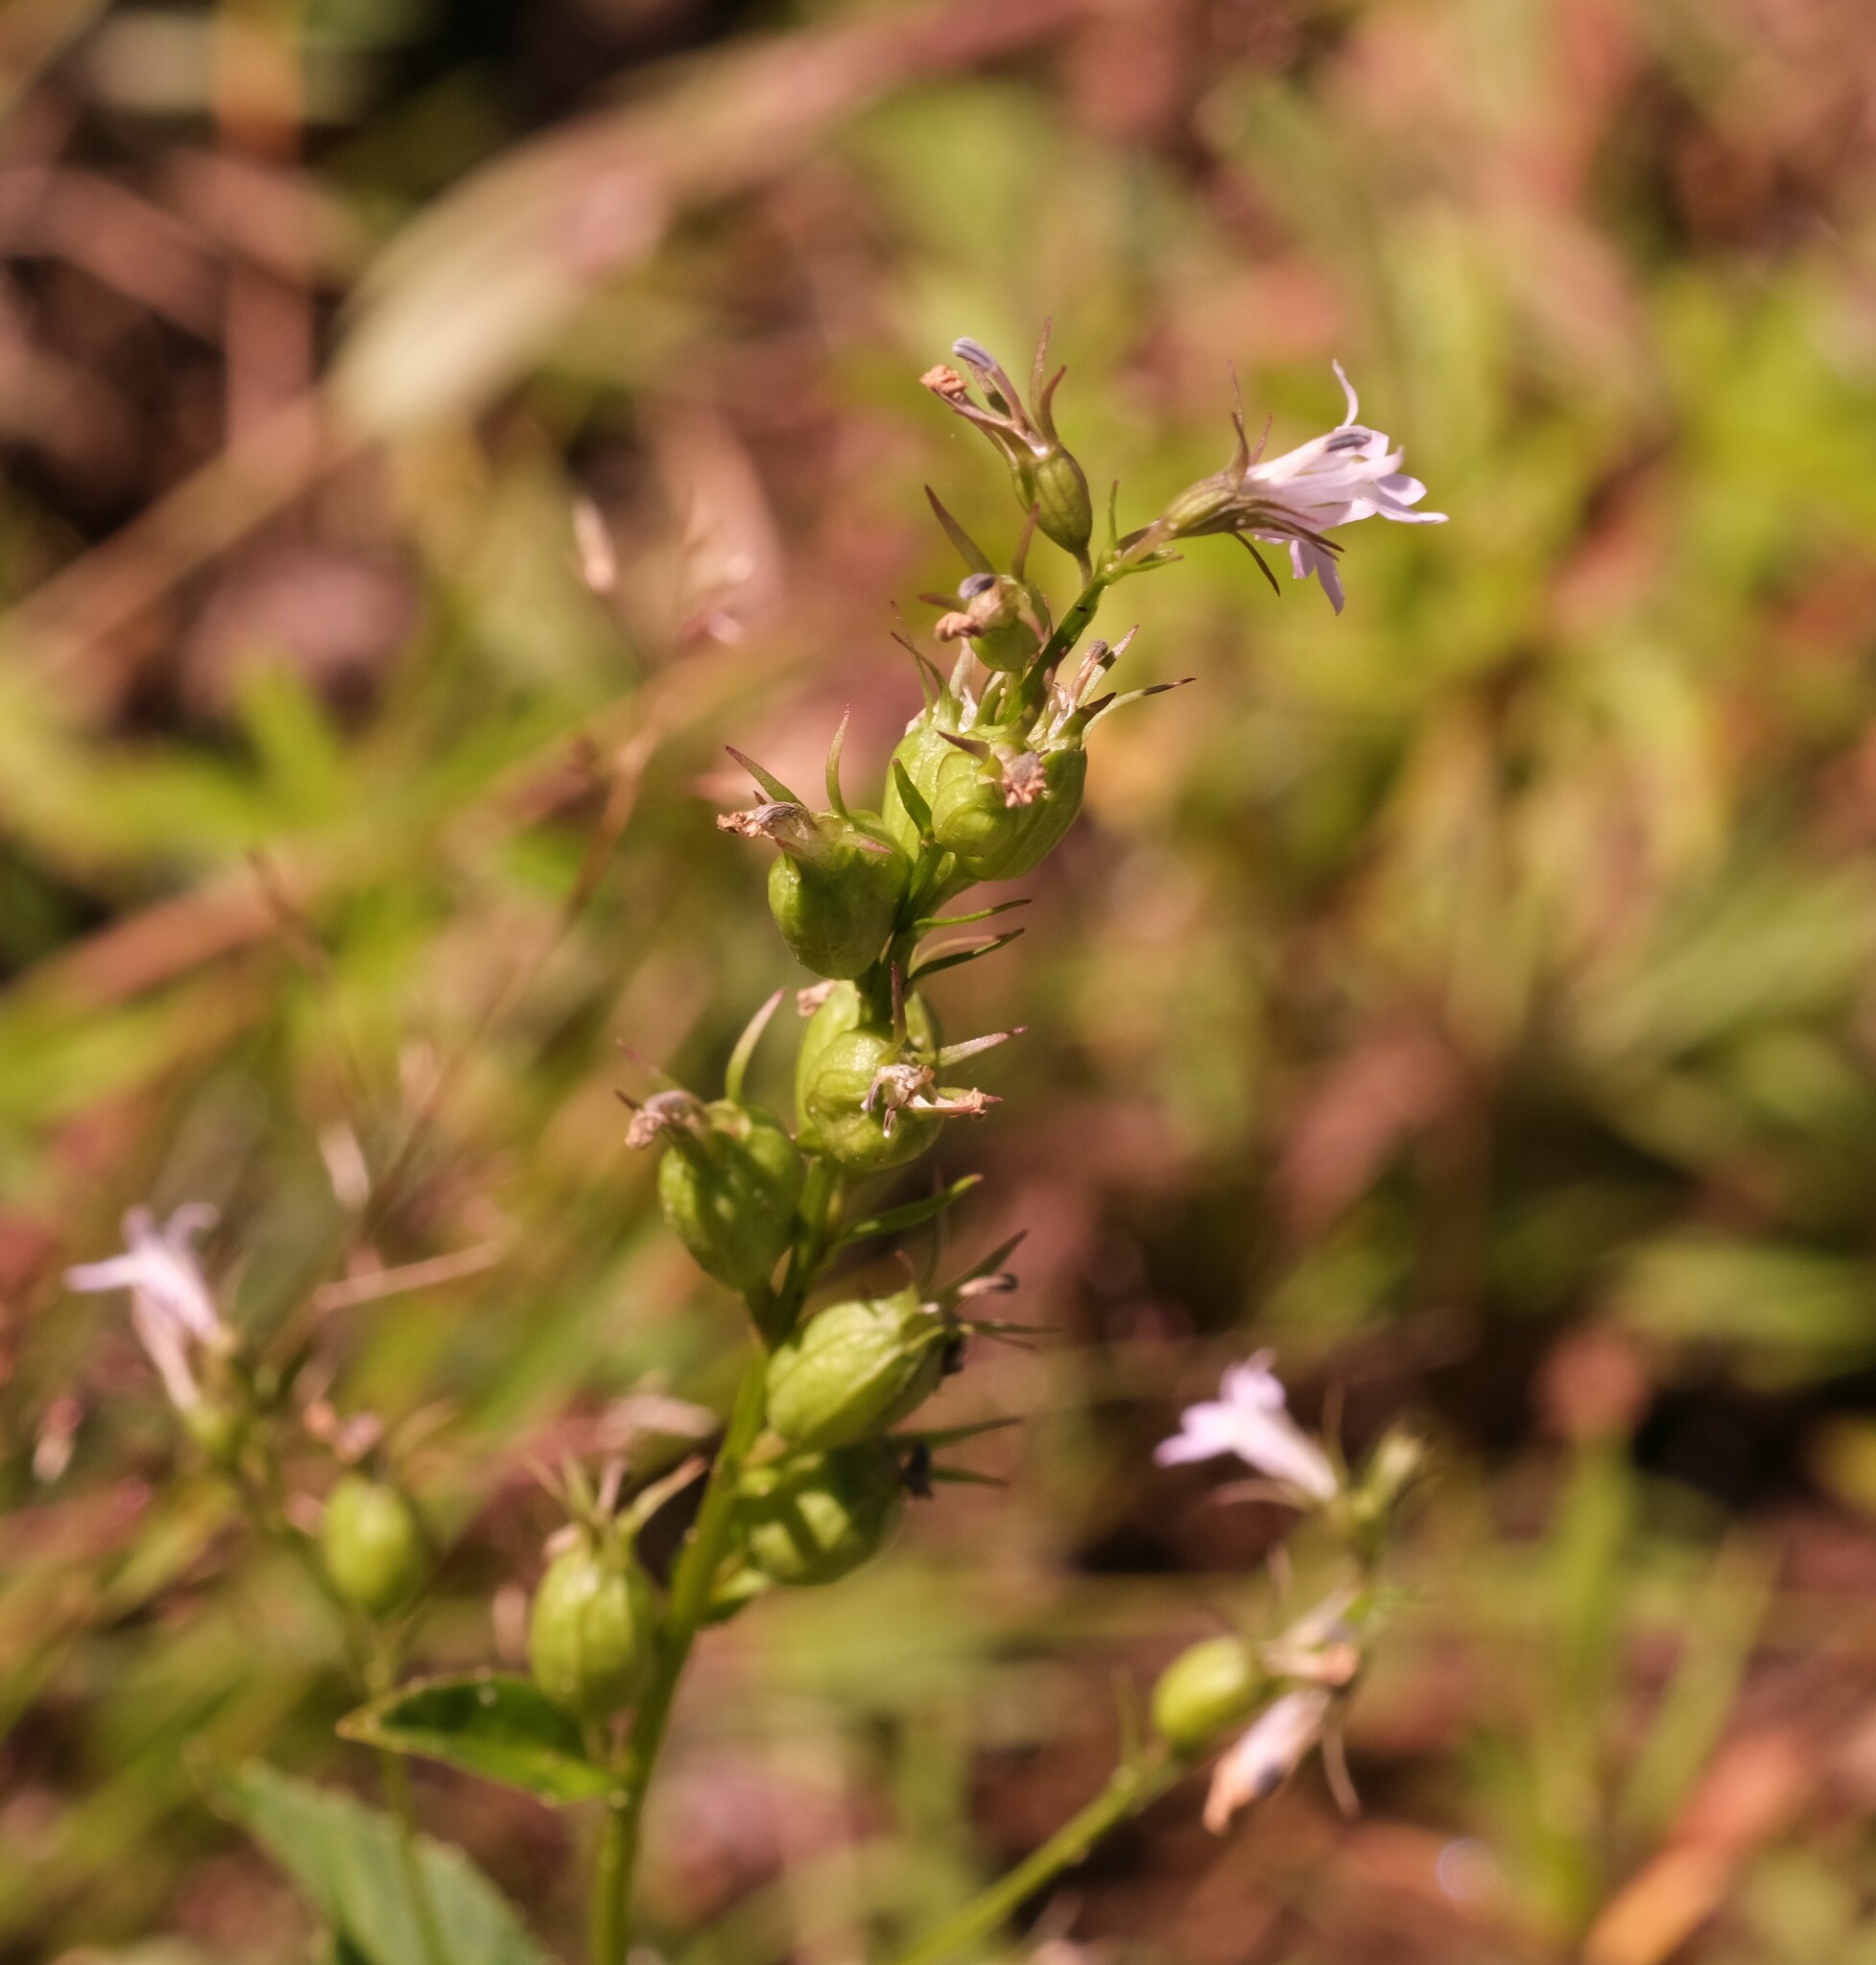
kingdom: Plantae
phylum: Tracheophyta
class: Magnoliopsida
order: Asterales
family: Campanulaceae
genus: Lobelia
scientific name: Lobelia inflata
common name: Indian tobacco
